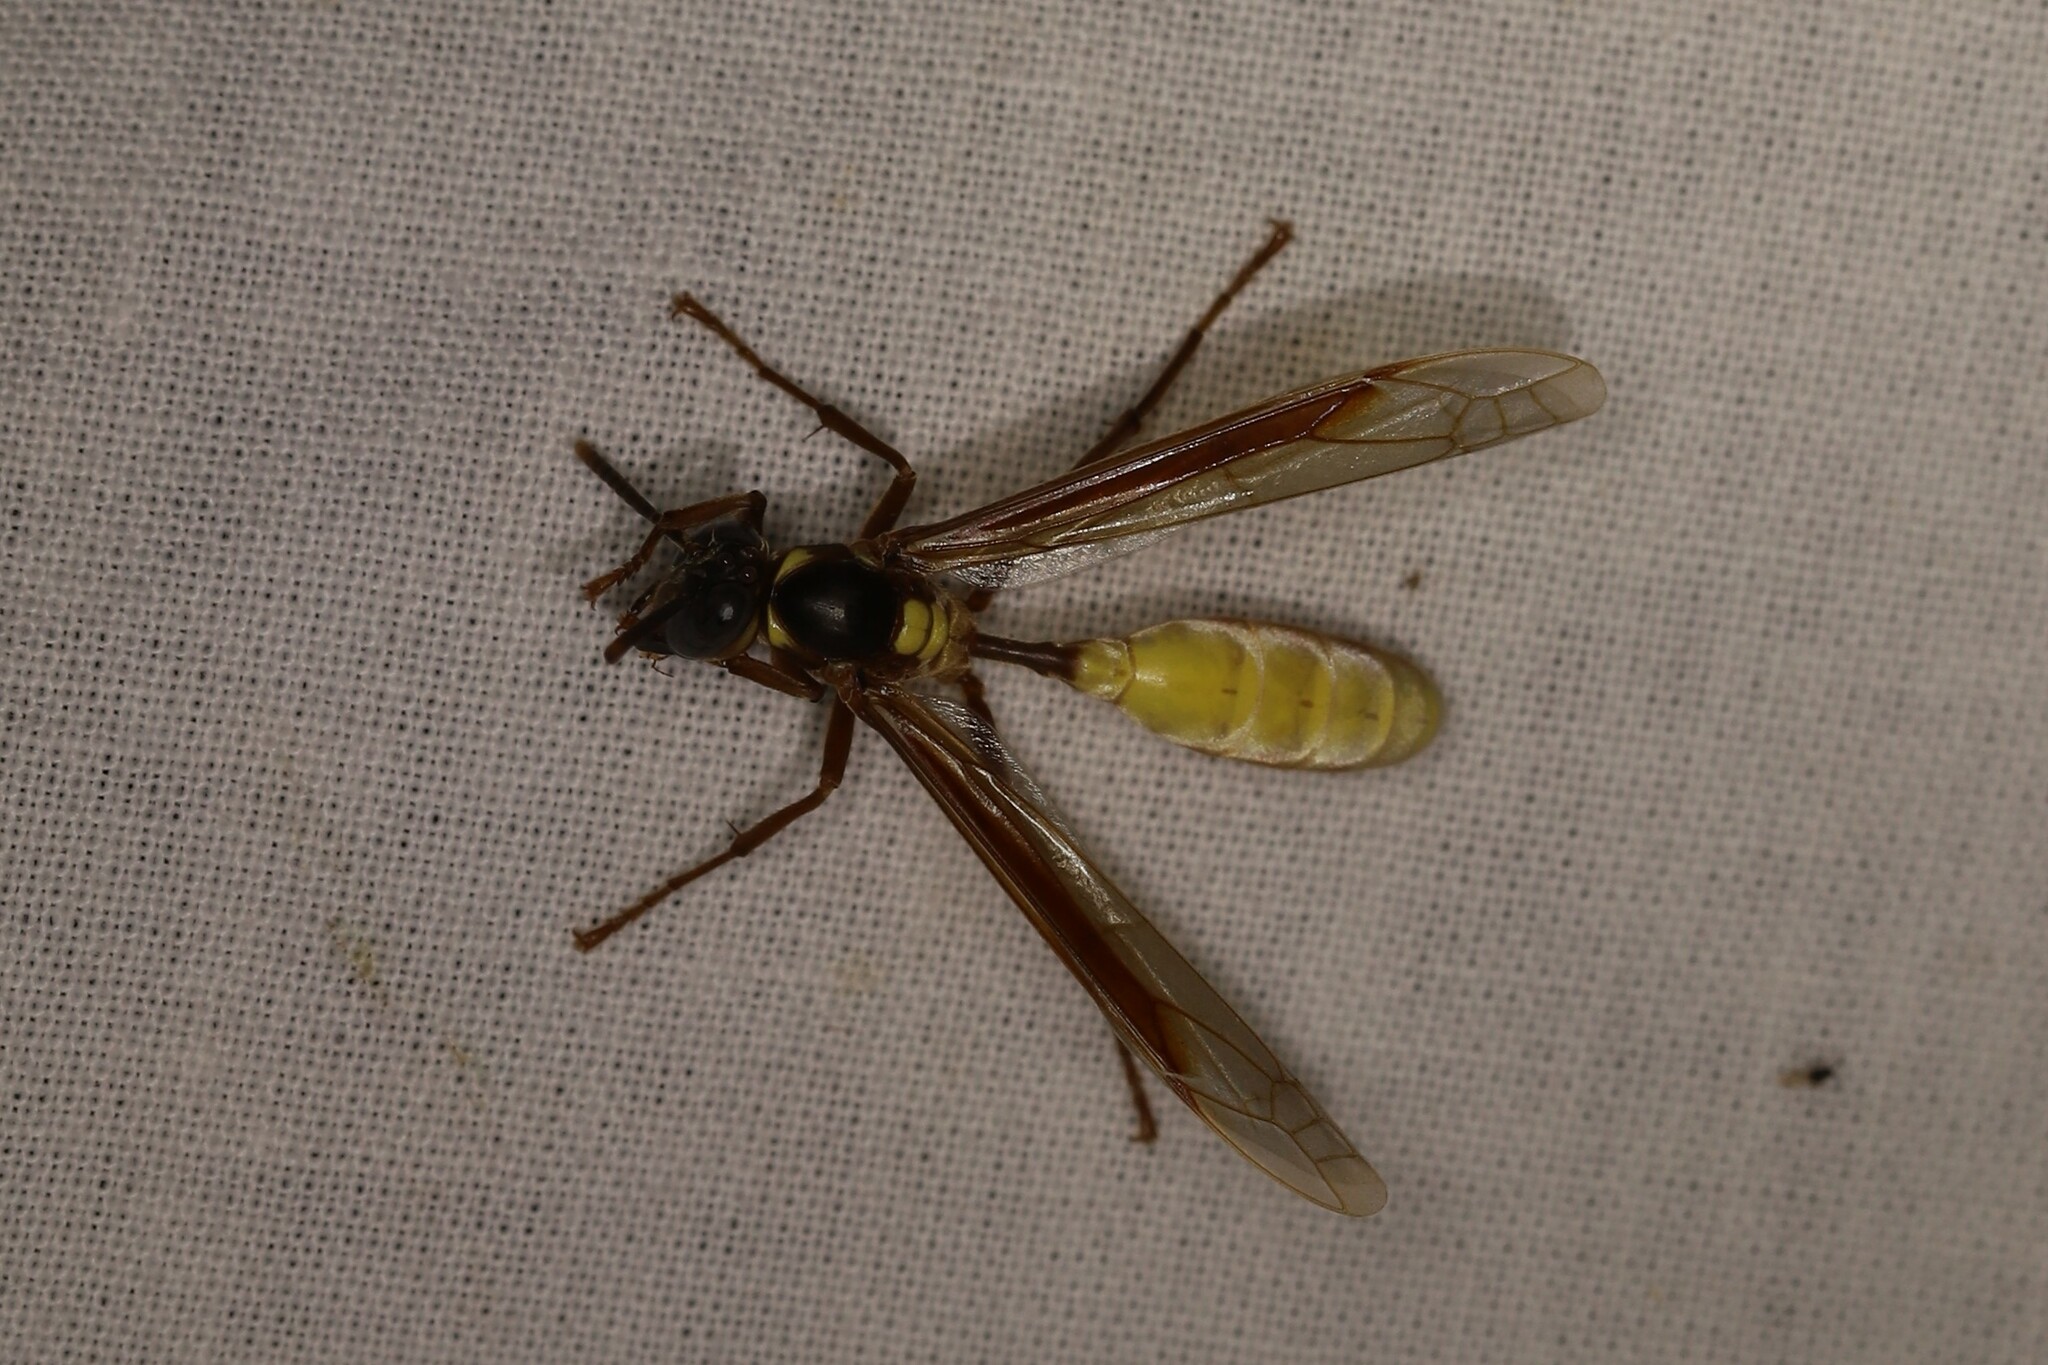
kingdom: Animalia
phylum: Arthropoda
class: Insecta
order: Hymenoptera
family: Vespidae
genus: Apoica
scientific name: Apoica pallens
